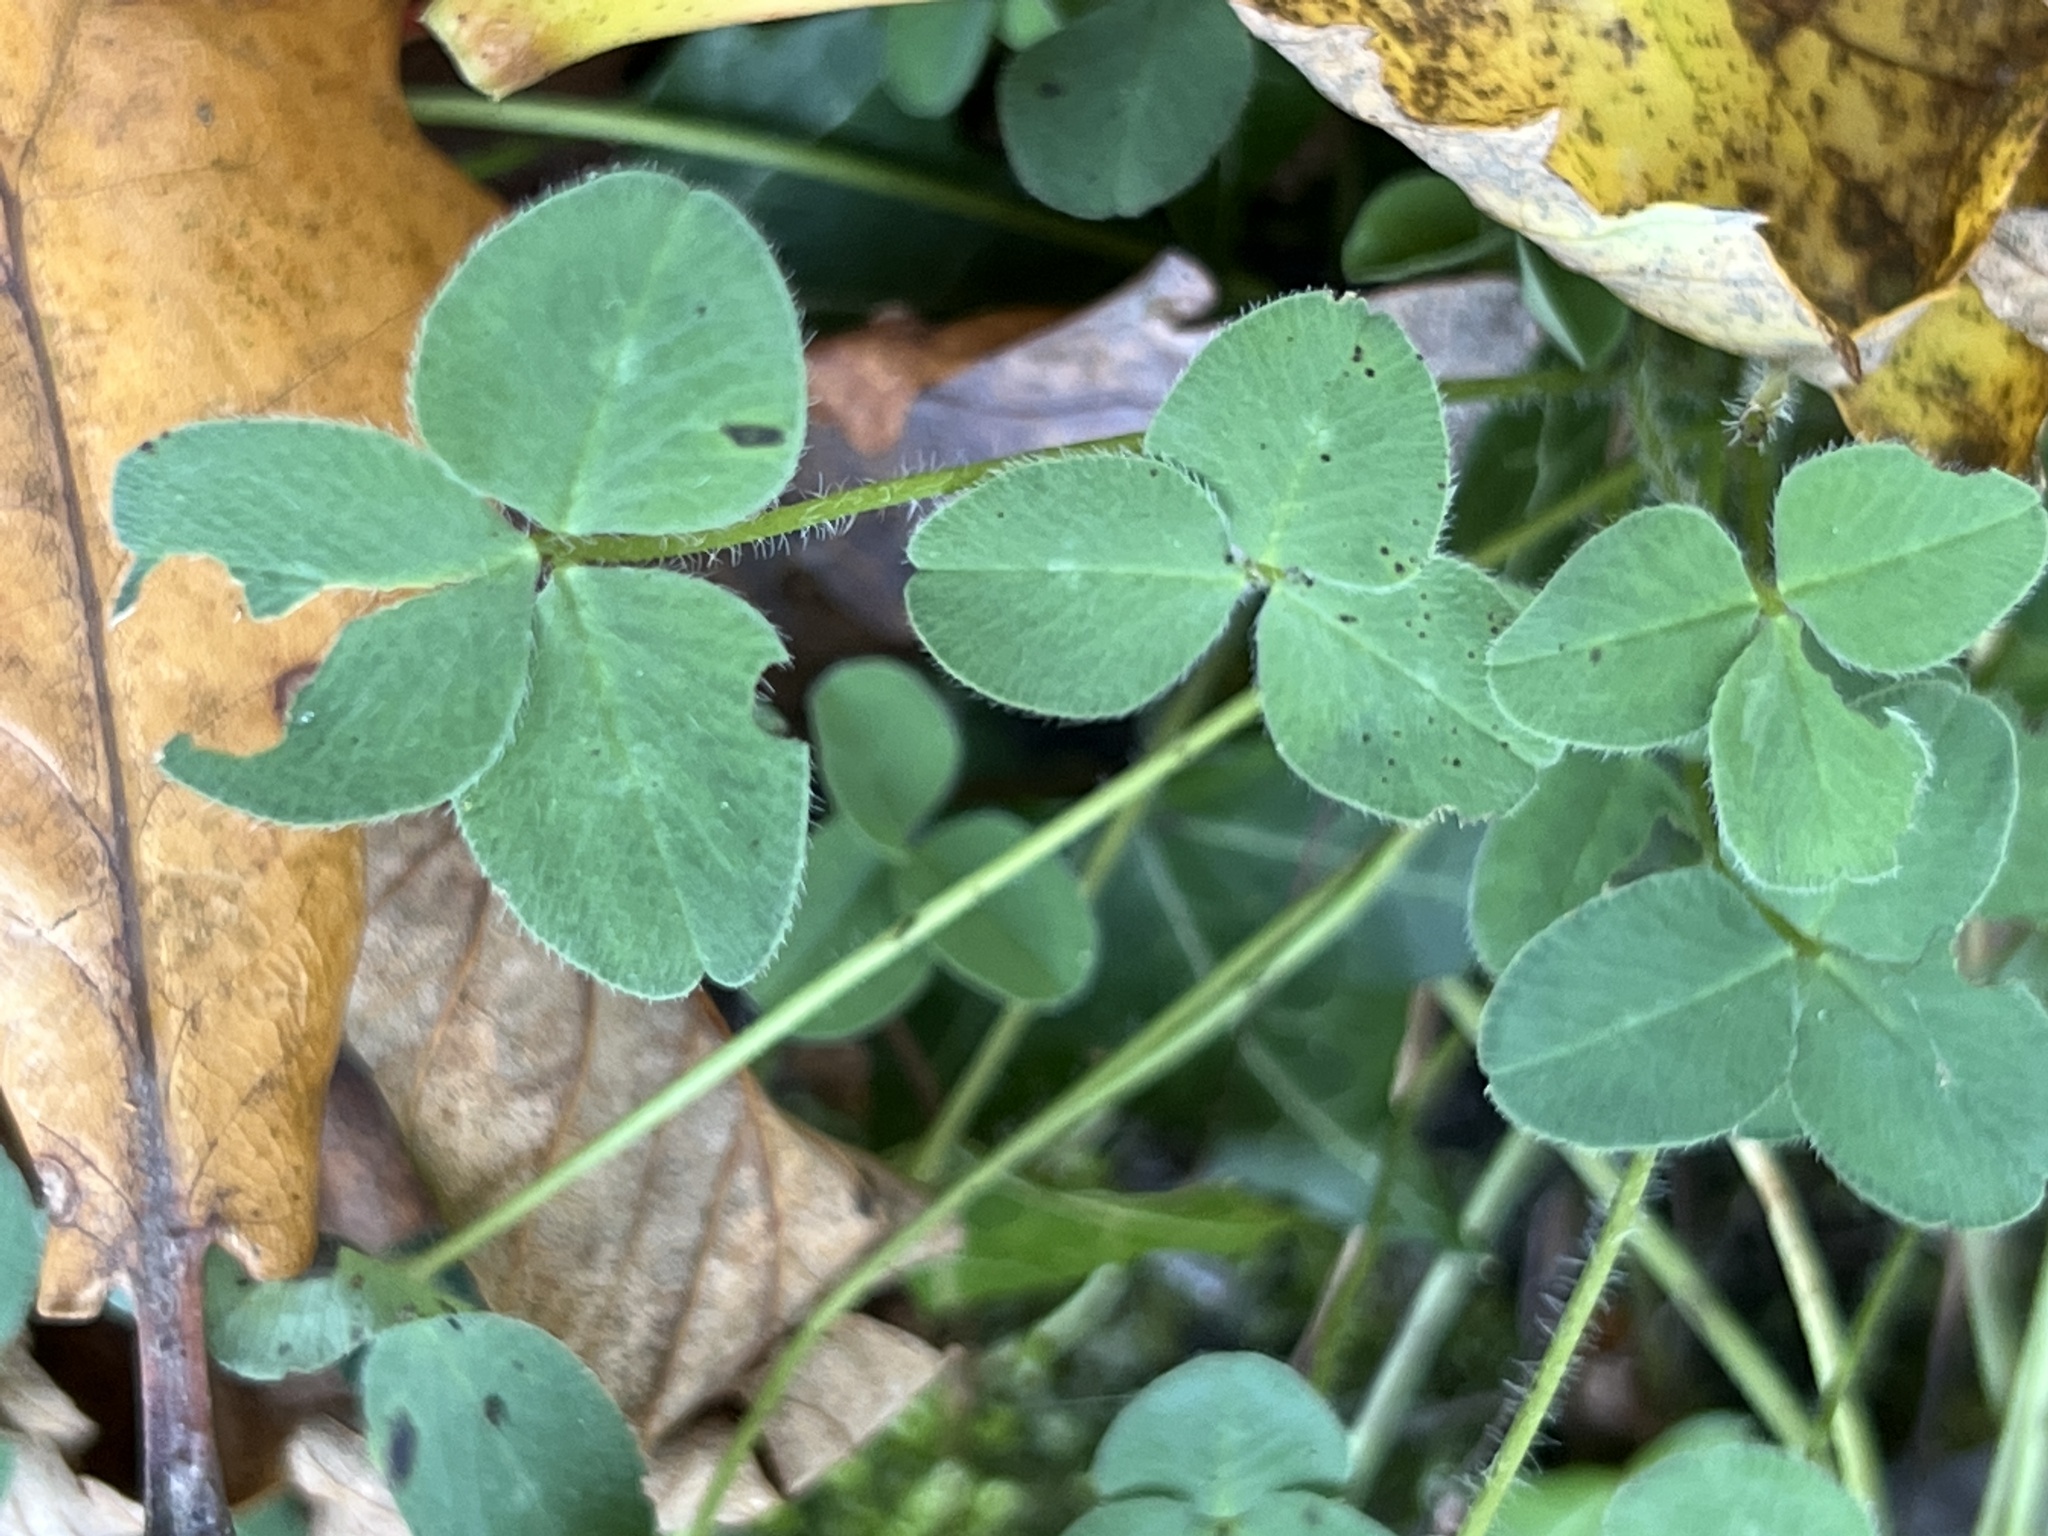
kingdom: Plantae
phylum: Tracheophyta
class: Magnoliopsida
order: Fabales
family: Fabaceae
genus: Trifolium
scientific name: Trifolium pratense
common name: Red clover
